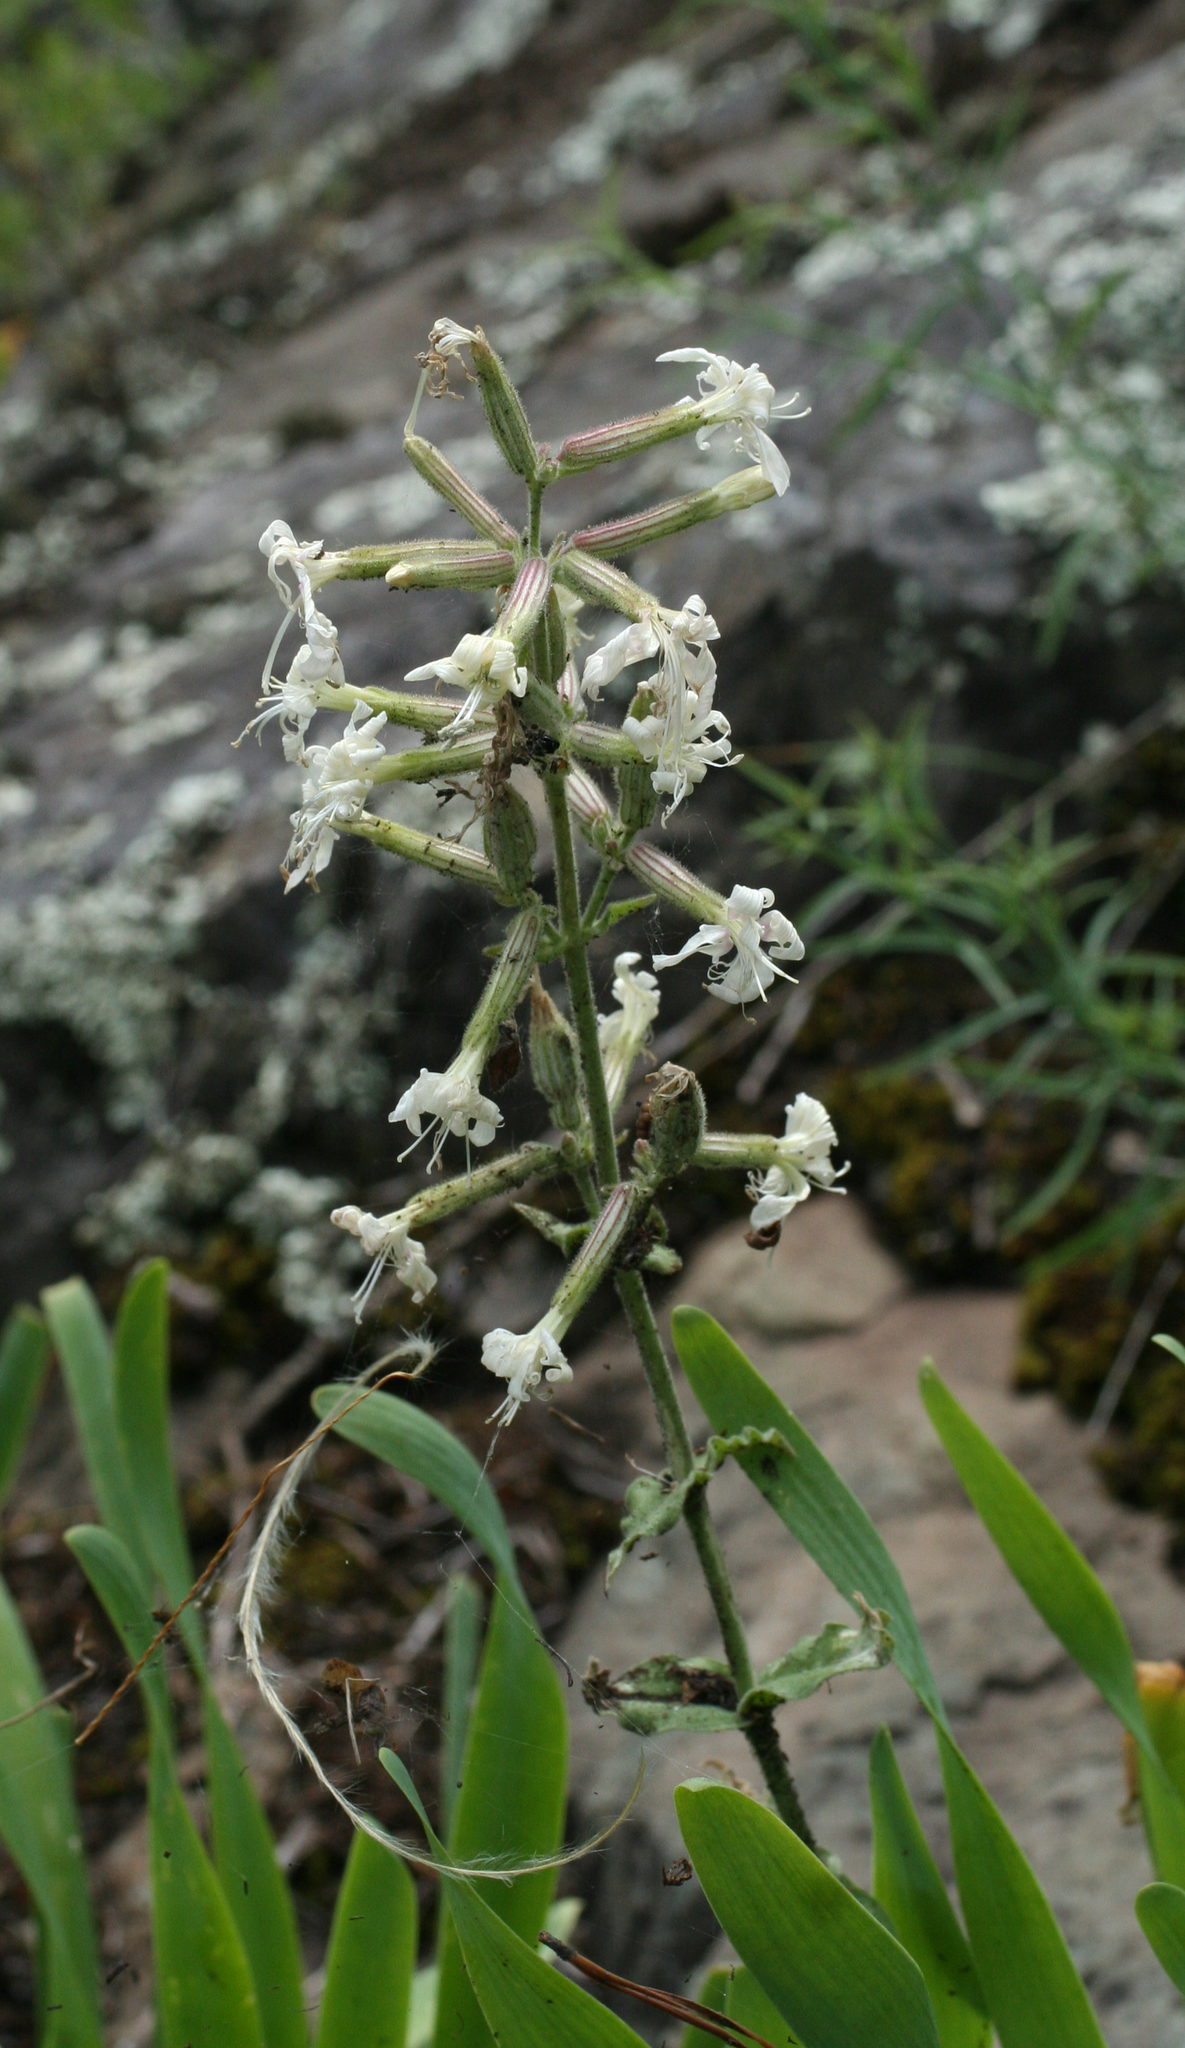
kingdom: Plantae
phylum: Tracheophyta
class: Magnoliopsida
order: Caryophyllales
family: Caryophyllaceae
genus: Silene
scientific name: Silene viscosa
